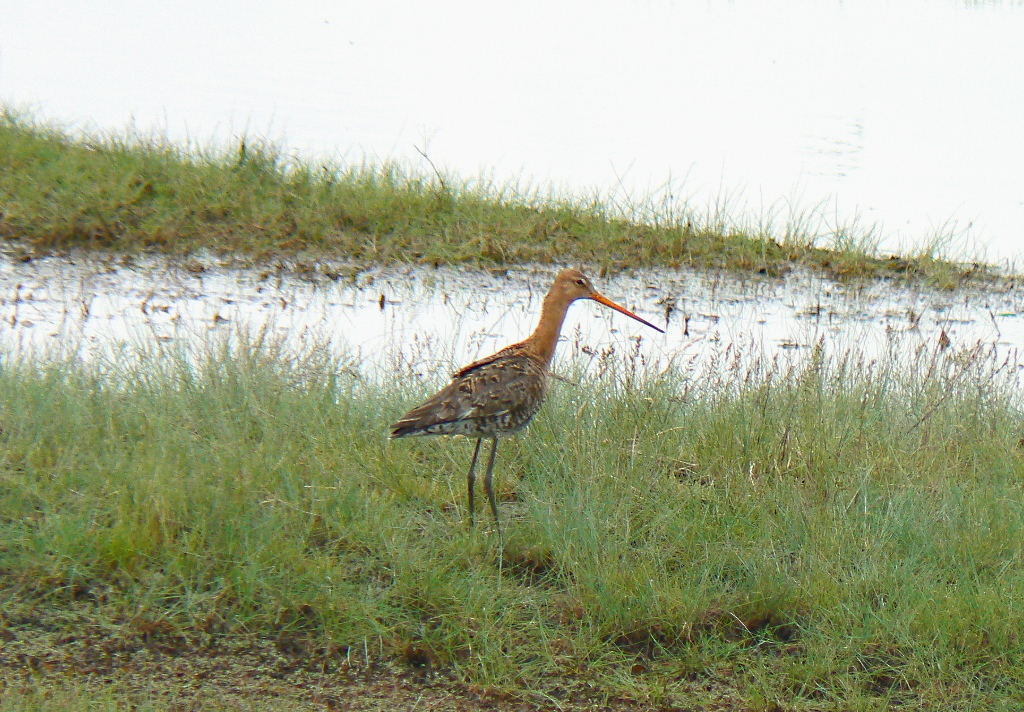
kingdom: Animalia
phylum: Chordata
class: Aves
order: Charadriiformes
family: Scolopacidae
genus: Limosa
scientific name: Limosa limosa
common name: Black-tailed godwit
